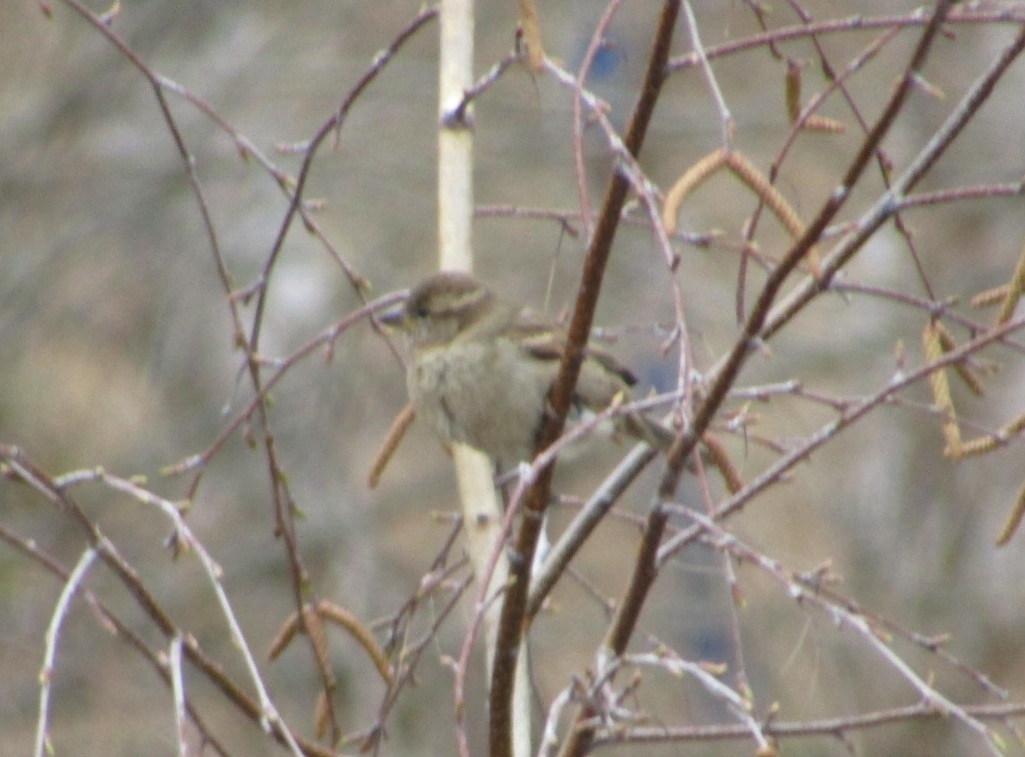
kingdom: Animalia
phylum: Chordata
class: Aves
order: Passeriformes
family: Passeridae
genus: Passer
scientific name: Passer domesticus
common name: House sparrow
